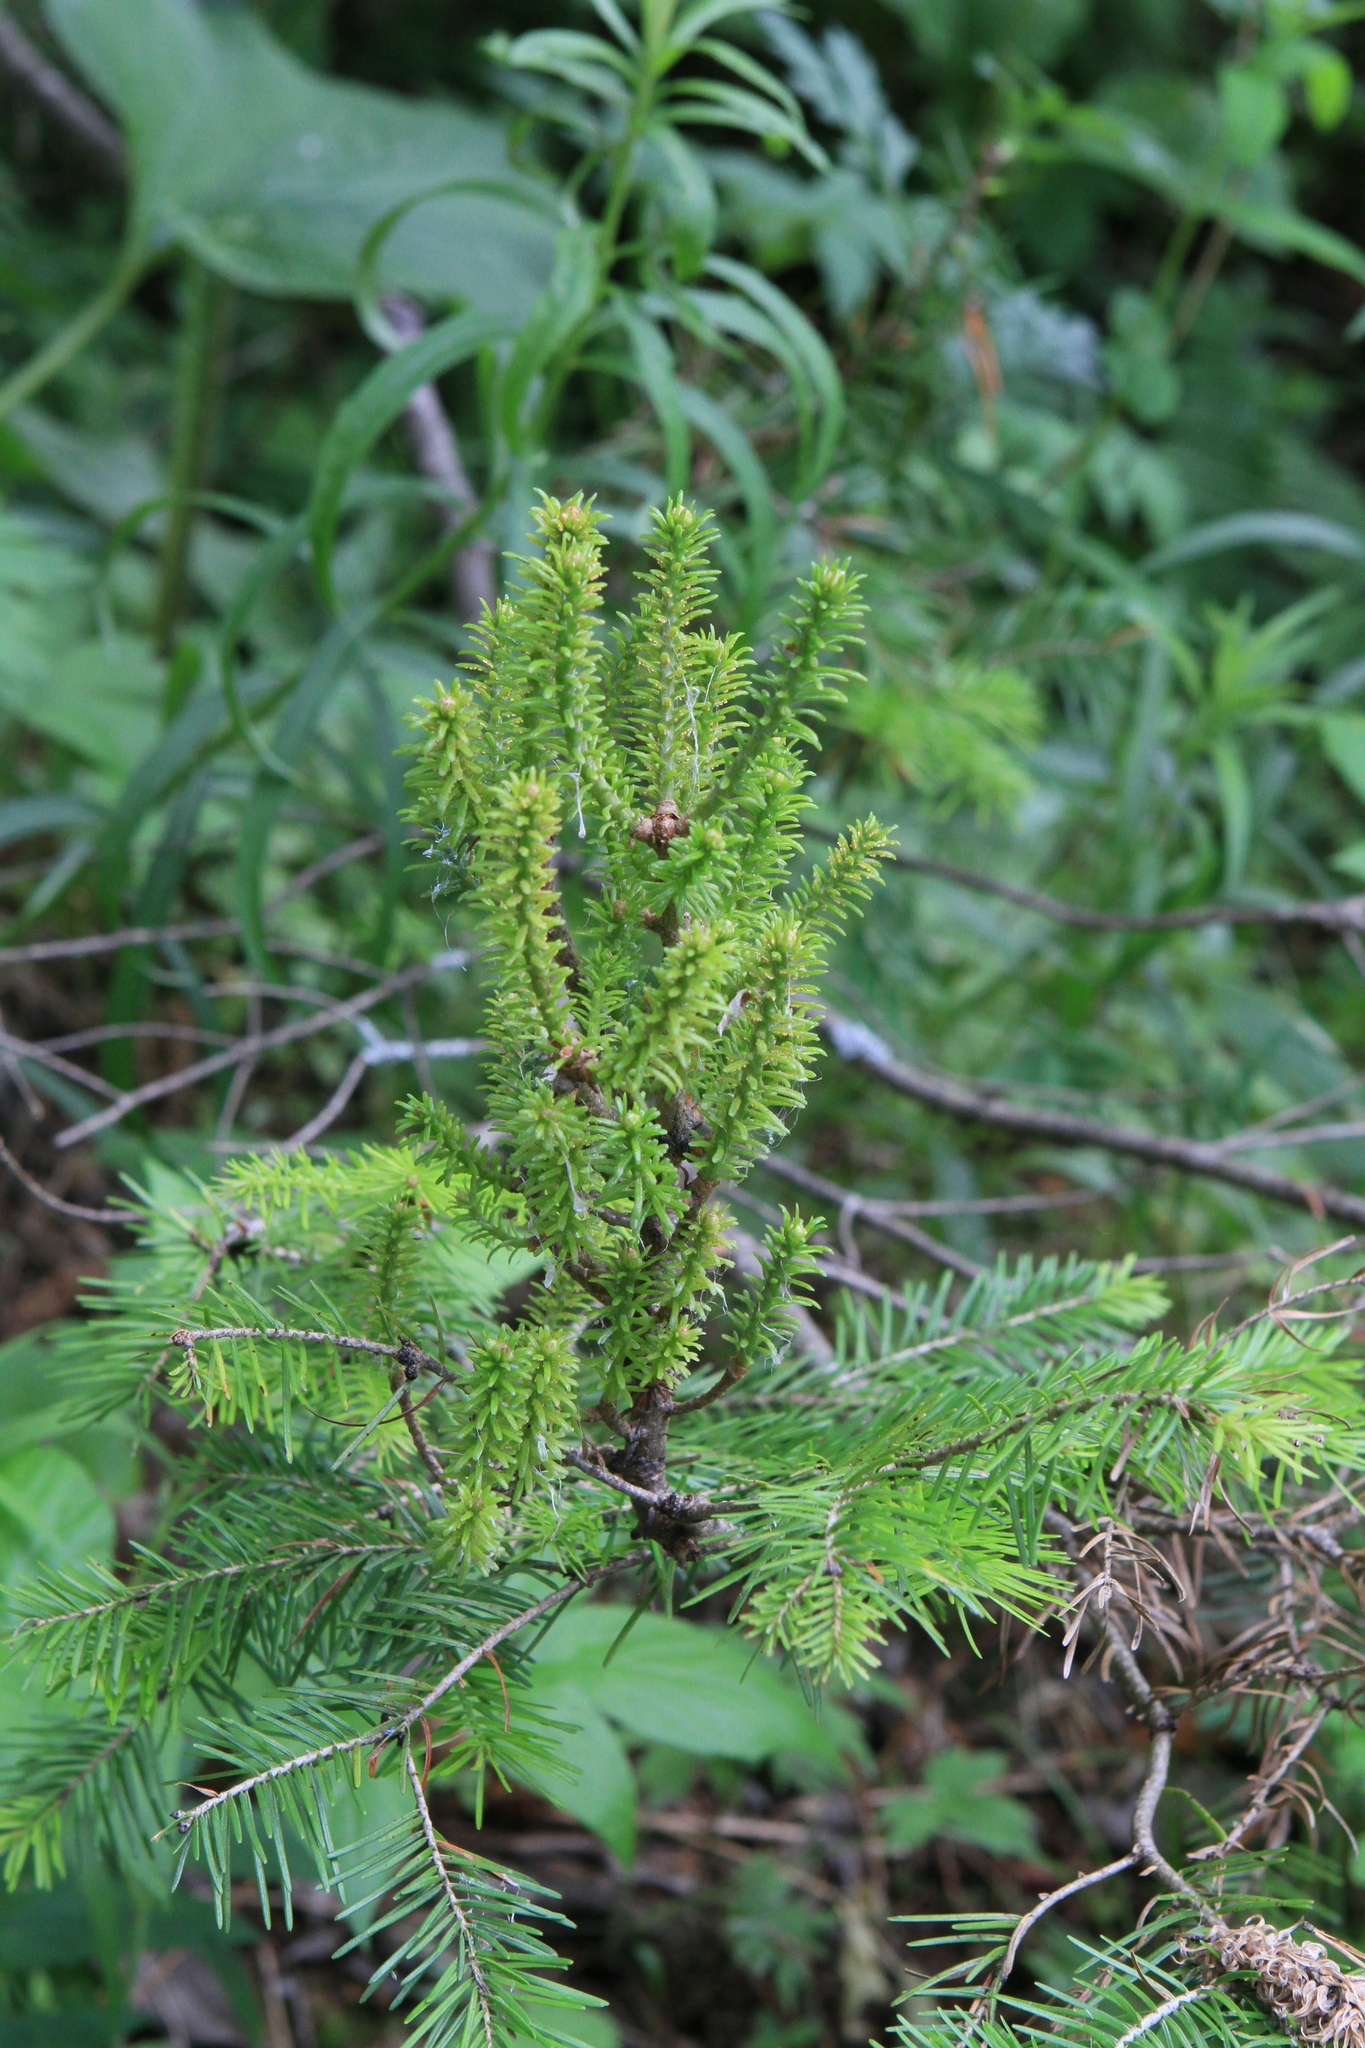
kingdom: Plantae
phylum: Tracheophyta
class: Pinopsida
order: Pinales
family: Pinaceae
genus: Abies
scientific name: Abies sibirica
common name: Siberian fir
